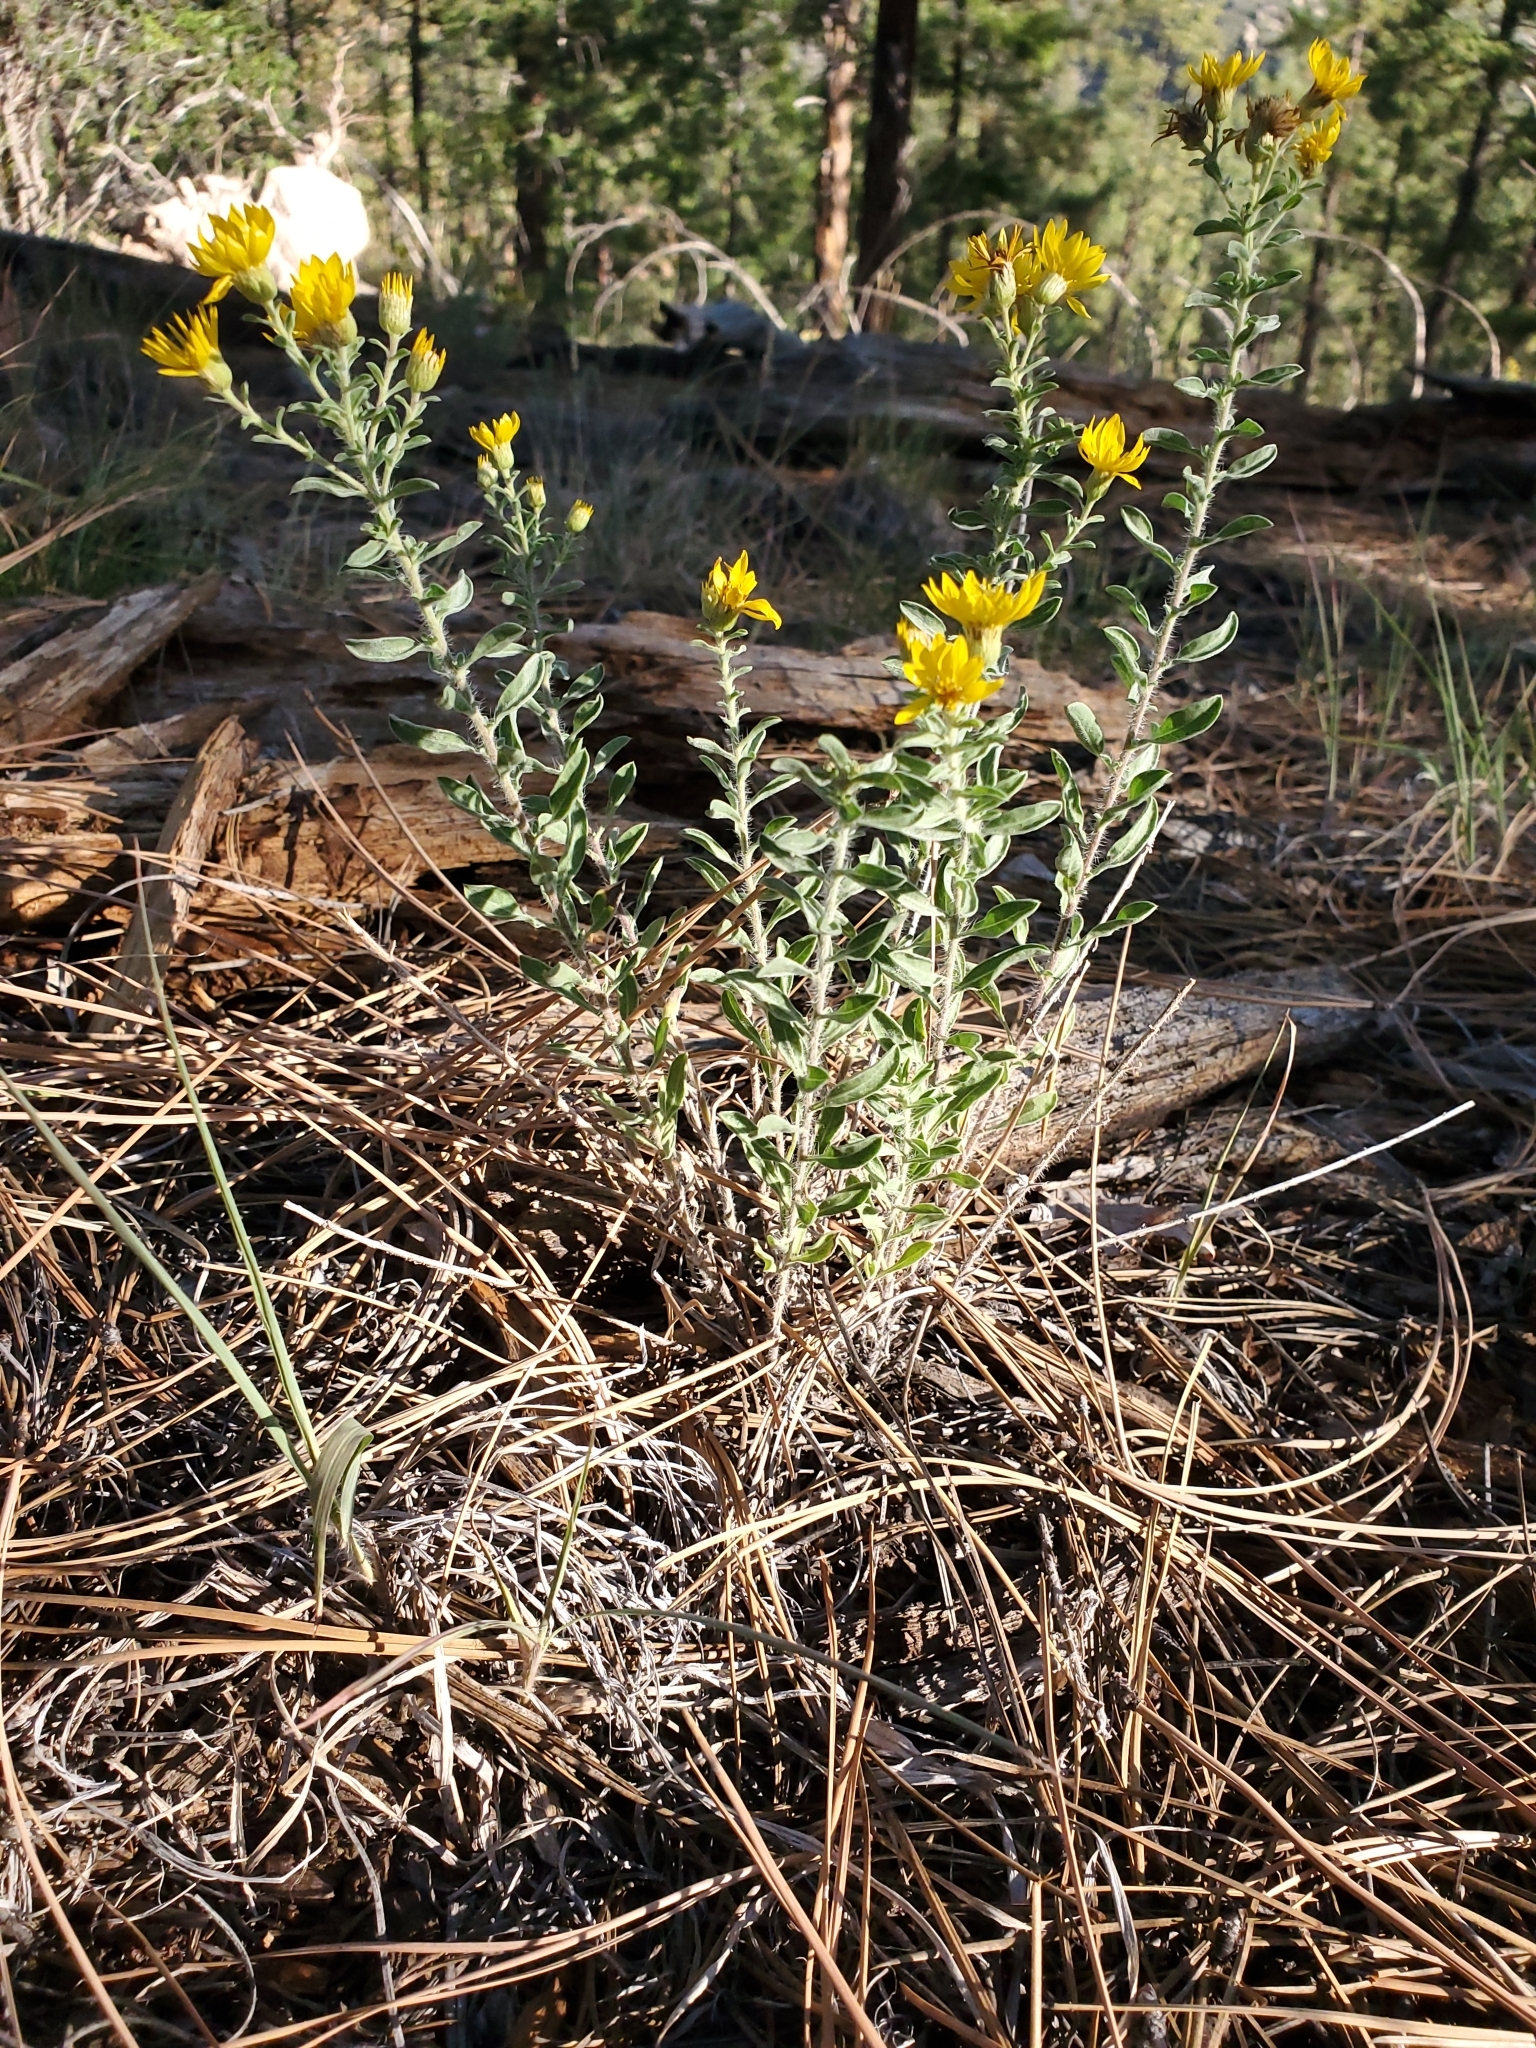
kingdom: Plantae
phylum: Tracheophyta
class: Magnoliopsida
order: Asterales
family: Asteraceae
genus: Heterotheca
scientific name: Heterotheca hirsutissima
